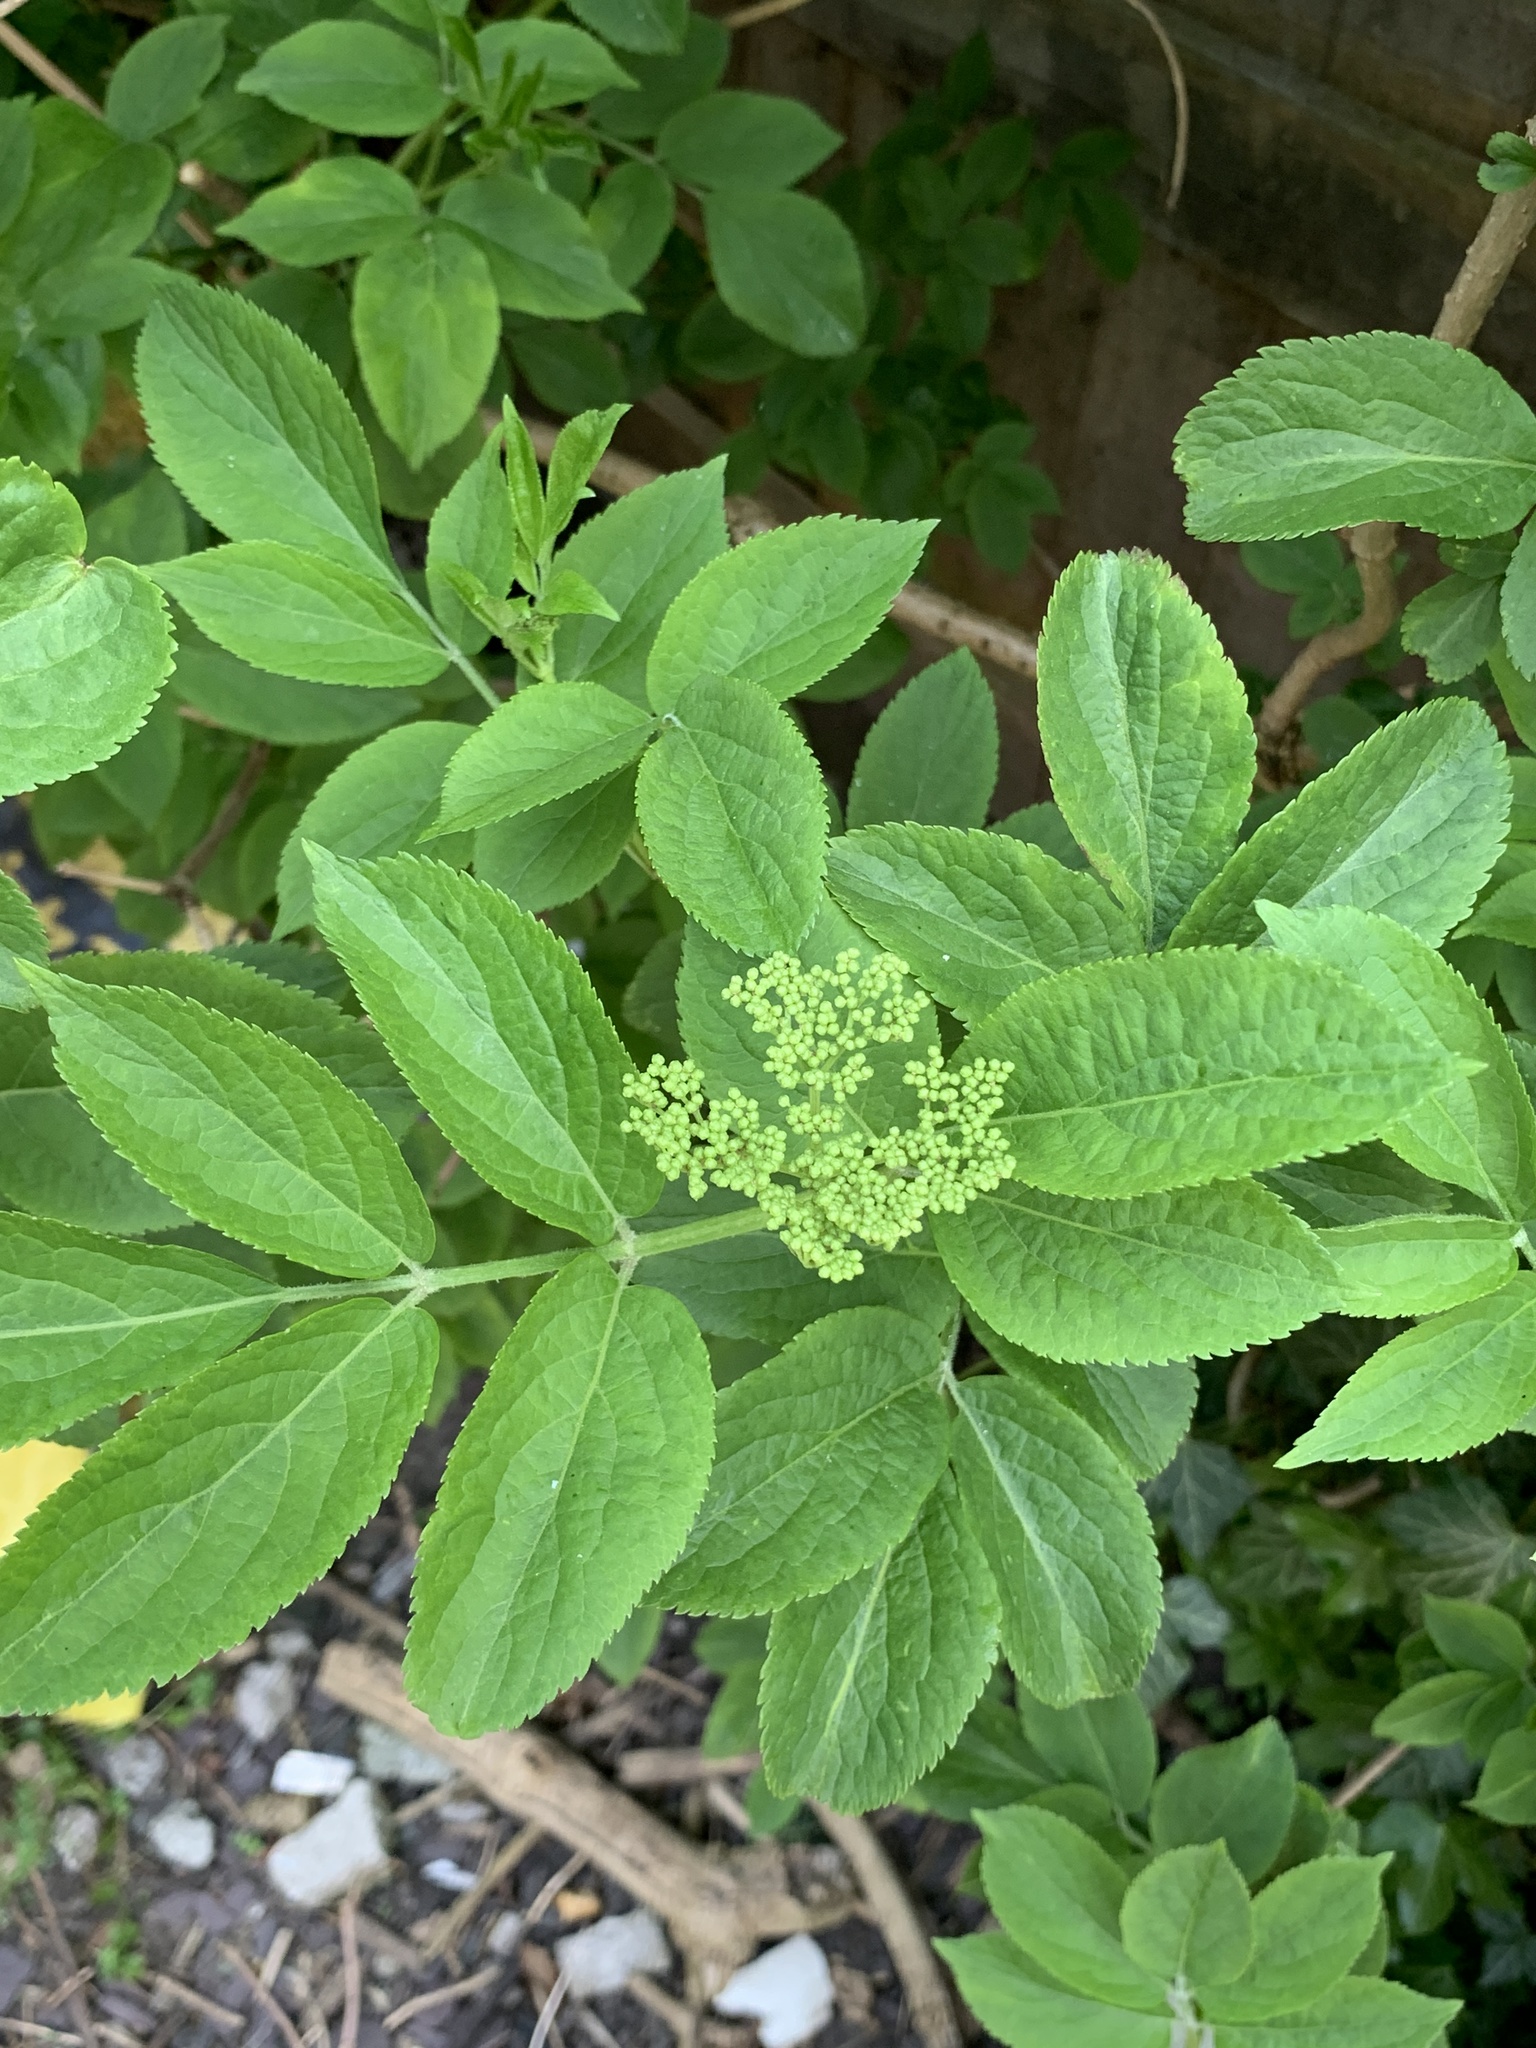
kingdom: Plantae
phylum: Tracheophyta
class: Magnoliopsida
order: Dipsacales
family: Viburnaceae
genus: Sambucus
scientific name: Sambucus nigra
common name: Elder
